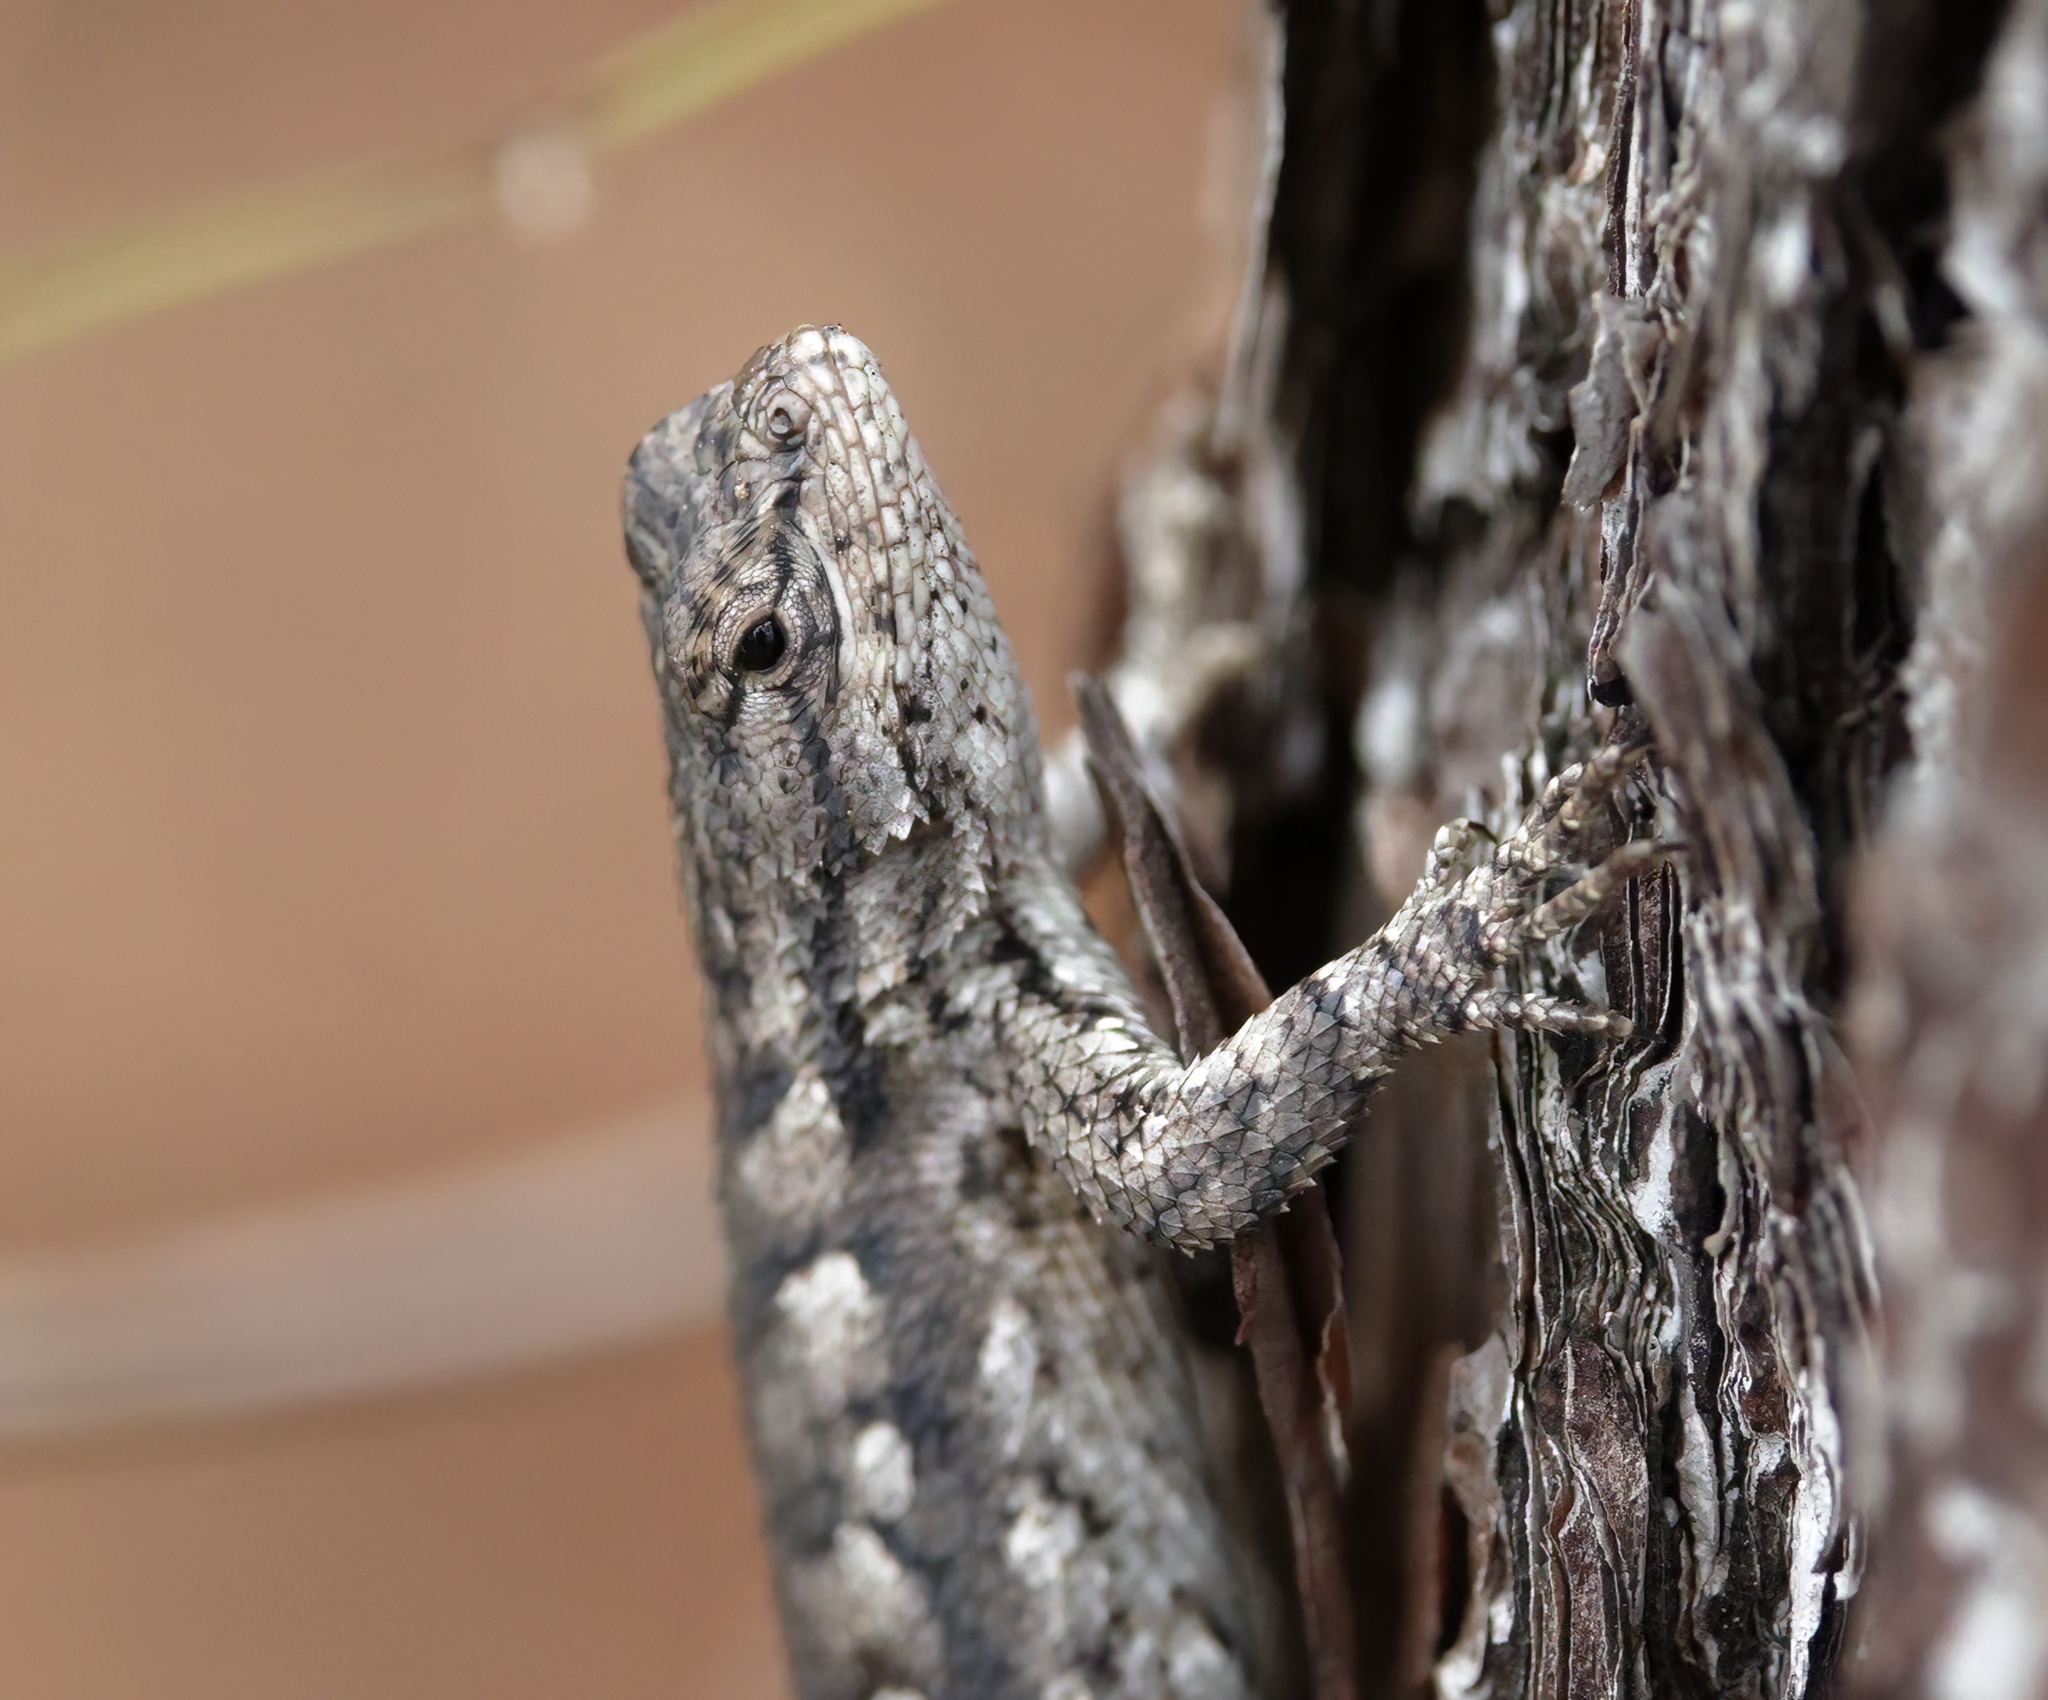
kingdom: Animalia
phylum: Chordata
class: Squamata
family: Phrynosomatidae
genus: Sceloporus
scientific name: Sceloporus undulatus
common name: Eastern fence lizard
